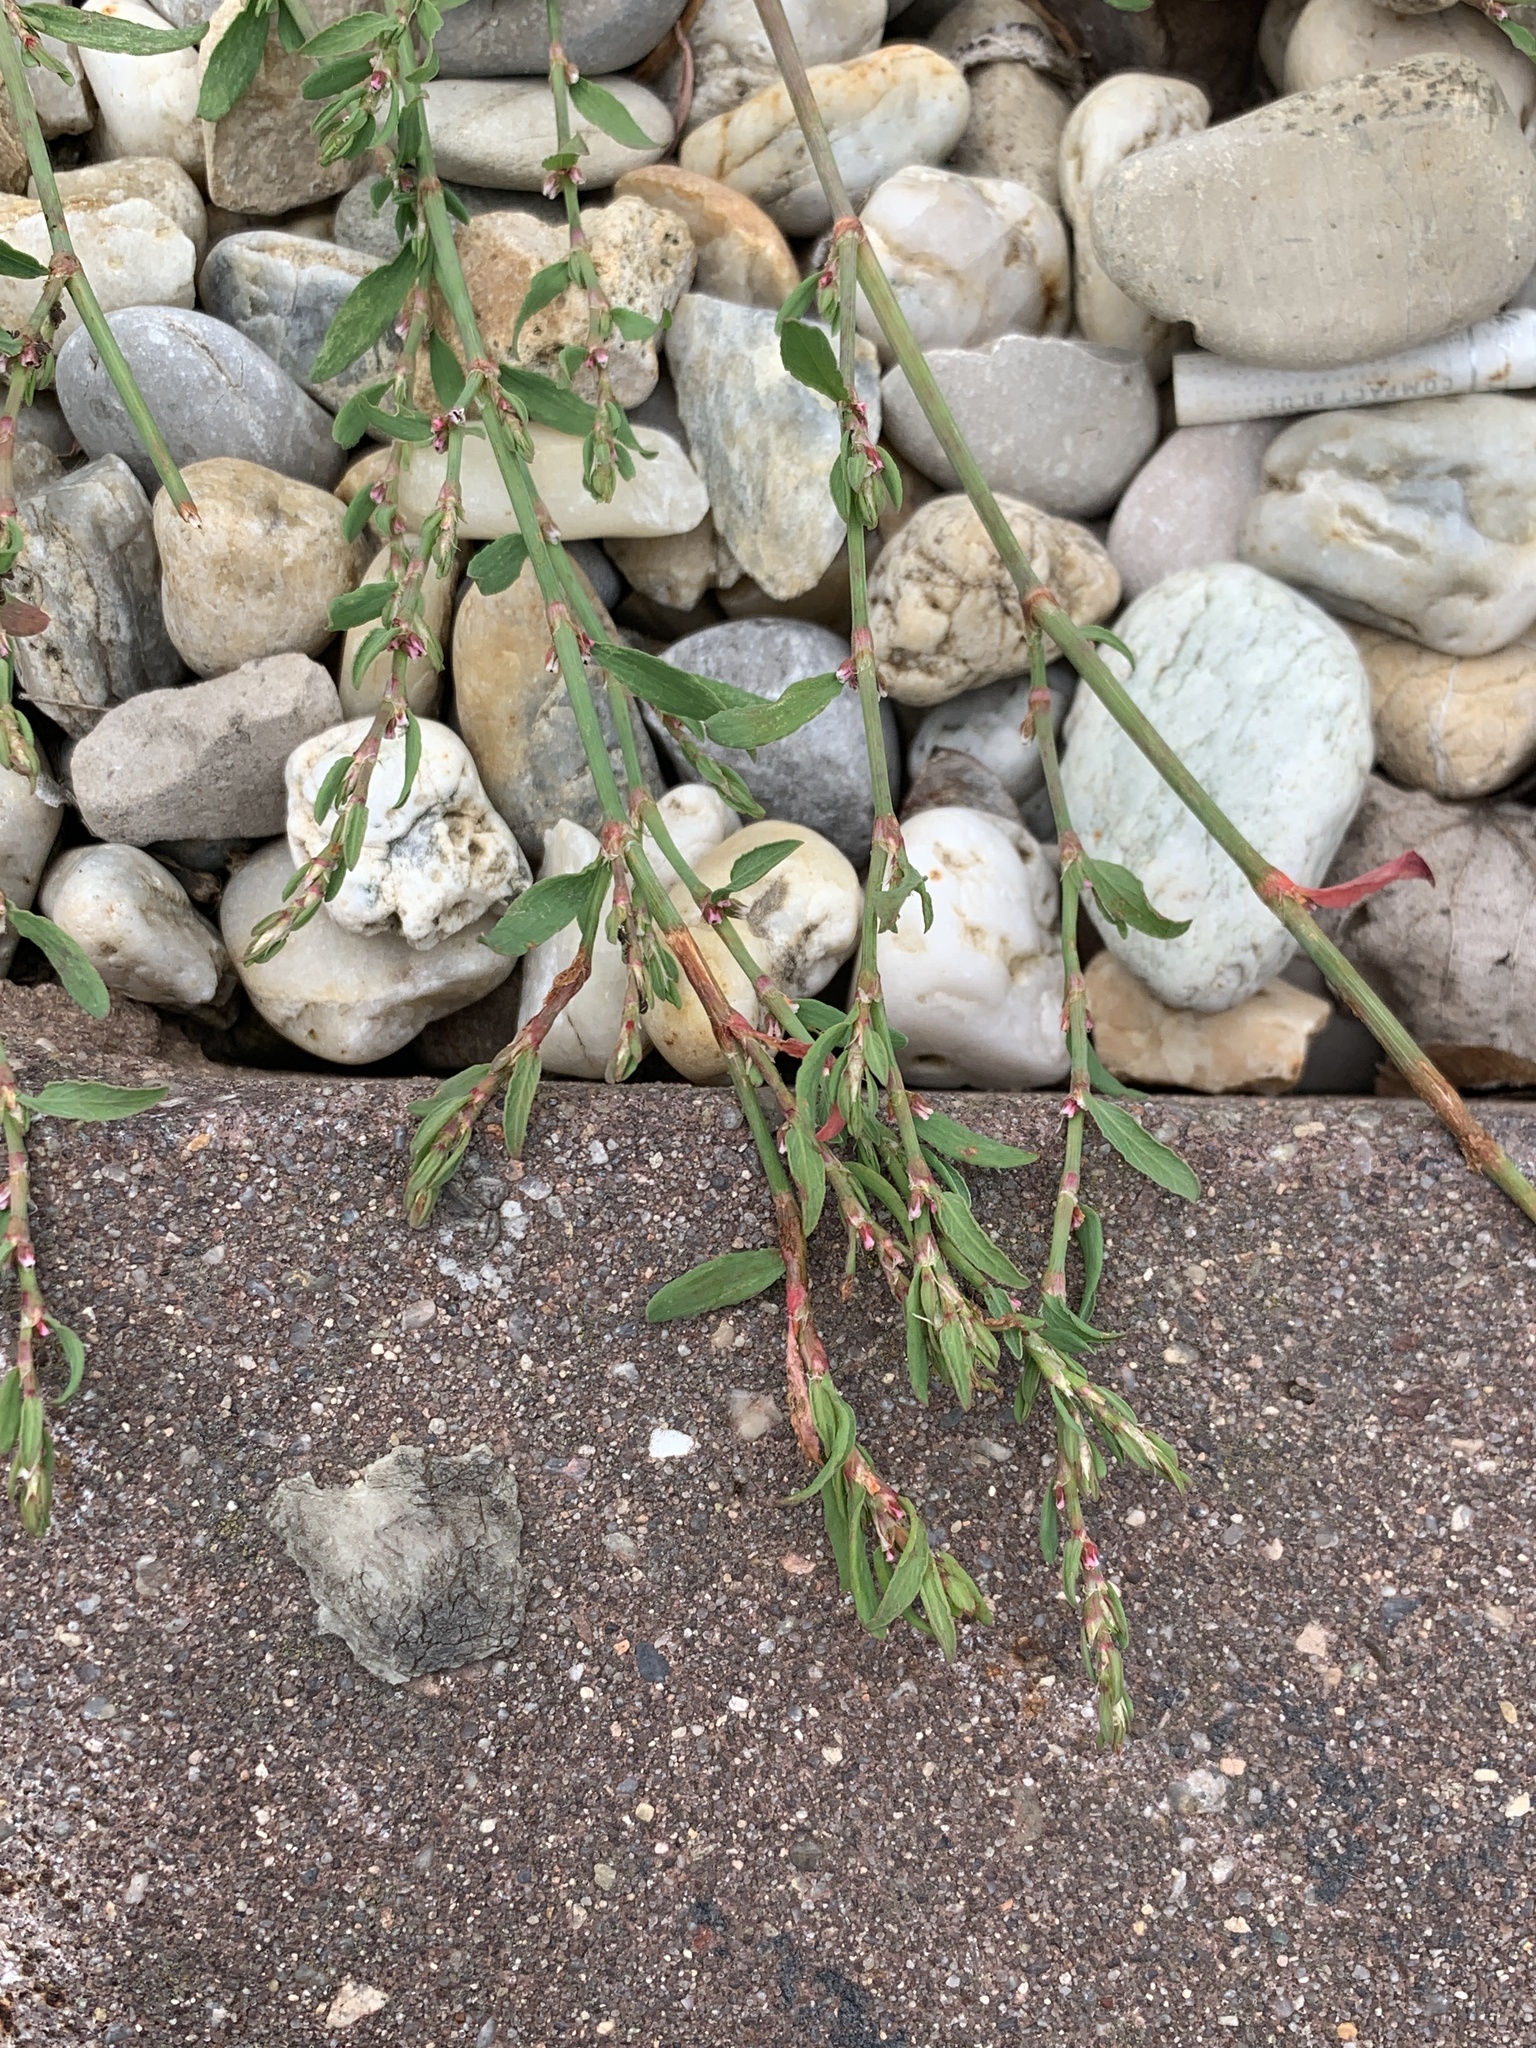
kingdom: Plantae
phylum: Tracheophyta
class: Magnoliopsida
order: Caryophyllales
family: Polygonaceae
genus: Polygonum
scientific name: Polygonum
